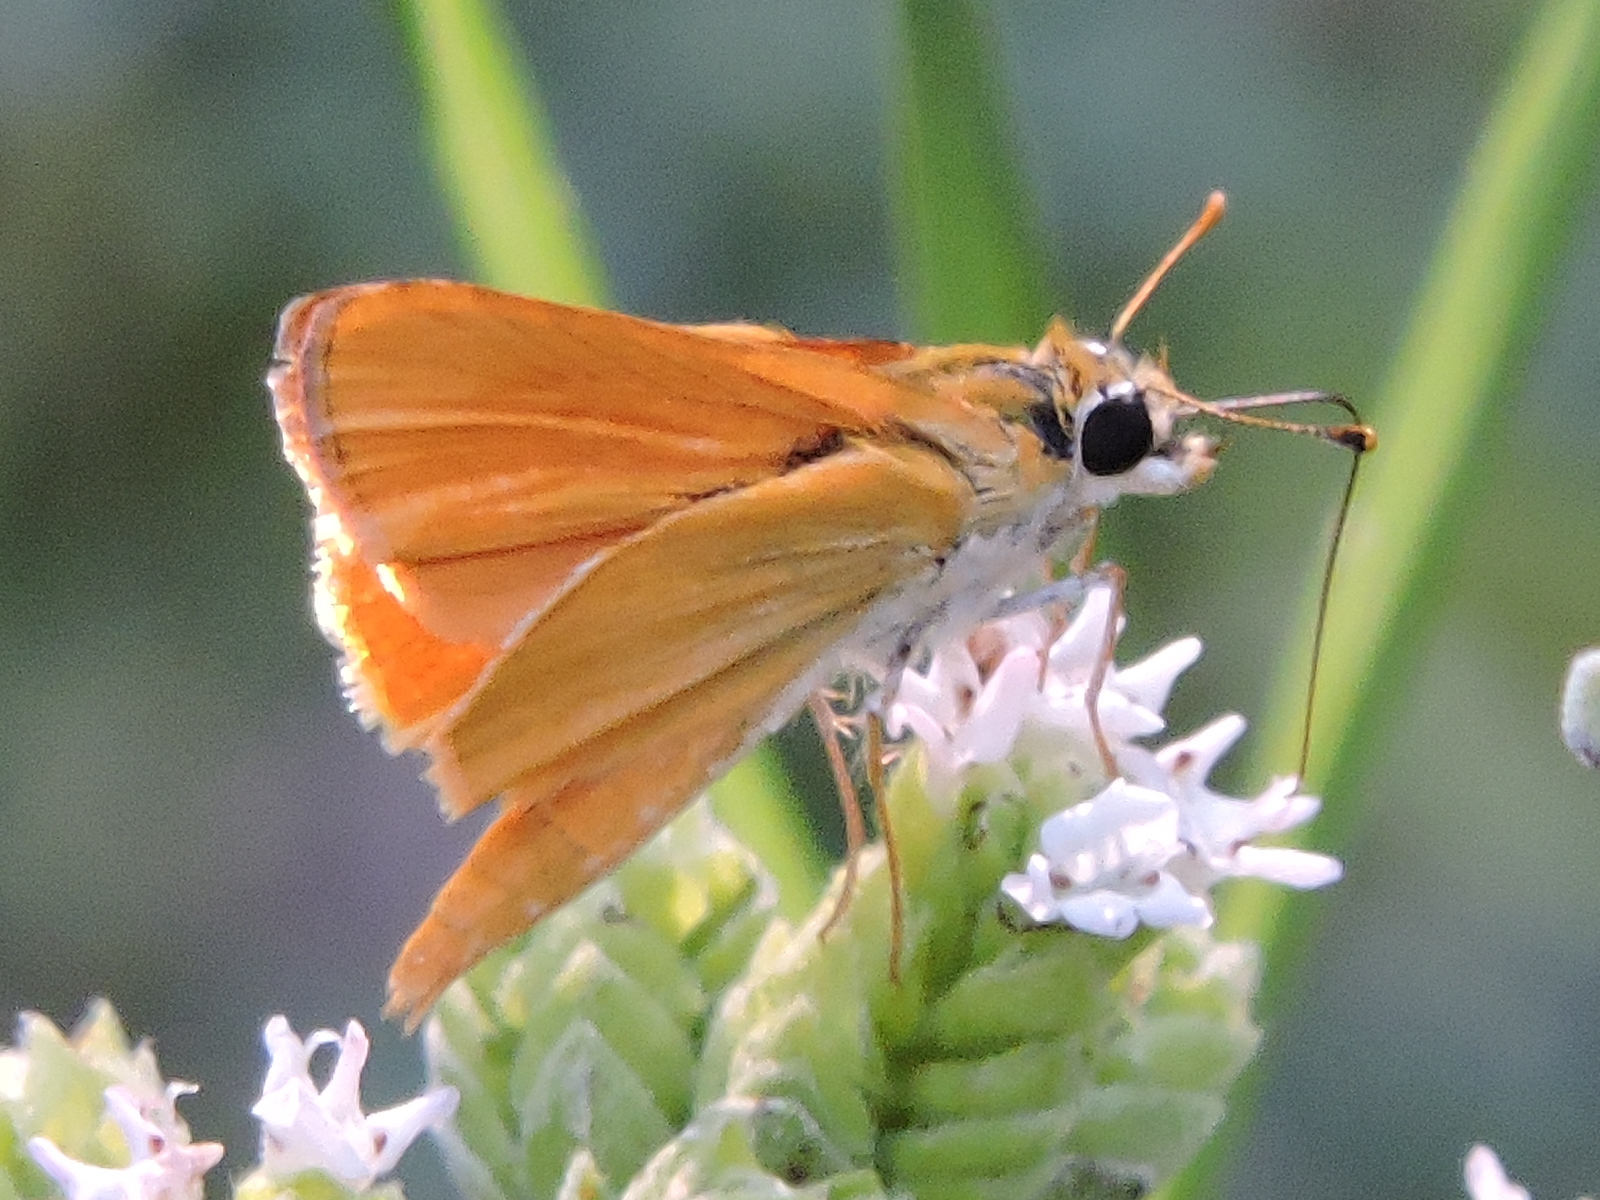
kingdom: Animalia
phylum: Arthropoda
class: Insecta
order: Lepidoptera
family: Hesperiidae
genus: Copaeodes
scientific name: Copaeodes aurantiaca
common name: Orange skipperling
